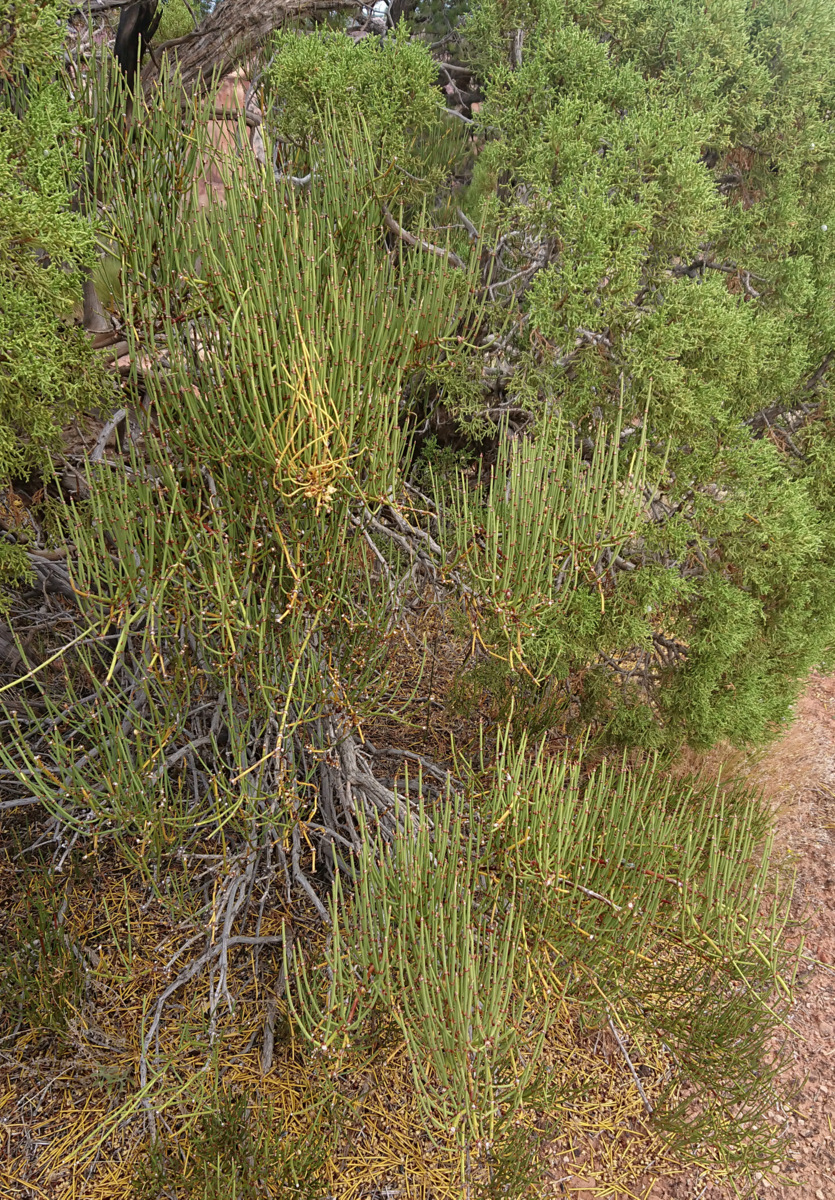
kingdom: Plantae
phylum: Tracheophyta
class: Gnetopsida
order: Ephedrales
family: Ephedraceae
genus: Ephedra
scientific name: Ephedra viridis
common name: Green ephedra
